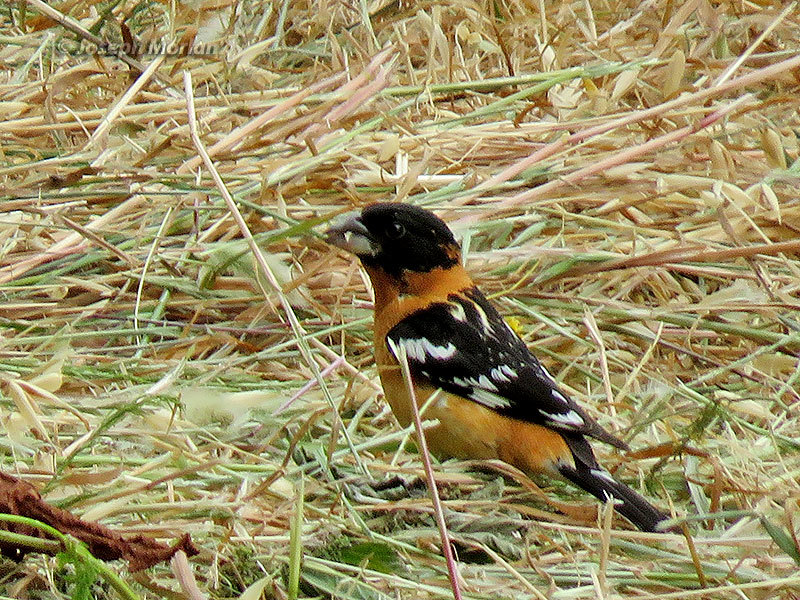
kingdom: Animalia
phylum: Chordata
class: Aves
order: Passeriformes
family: Cardinalidae
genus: Pheucticus
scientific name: Pheucticus melanocephalus
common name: Black-headed grosbeak
